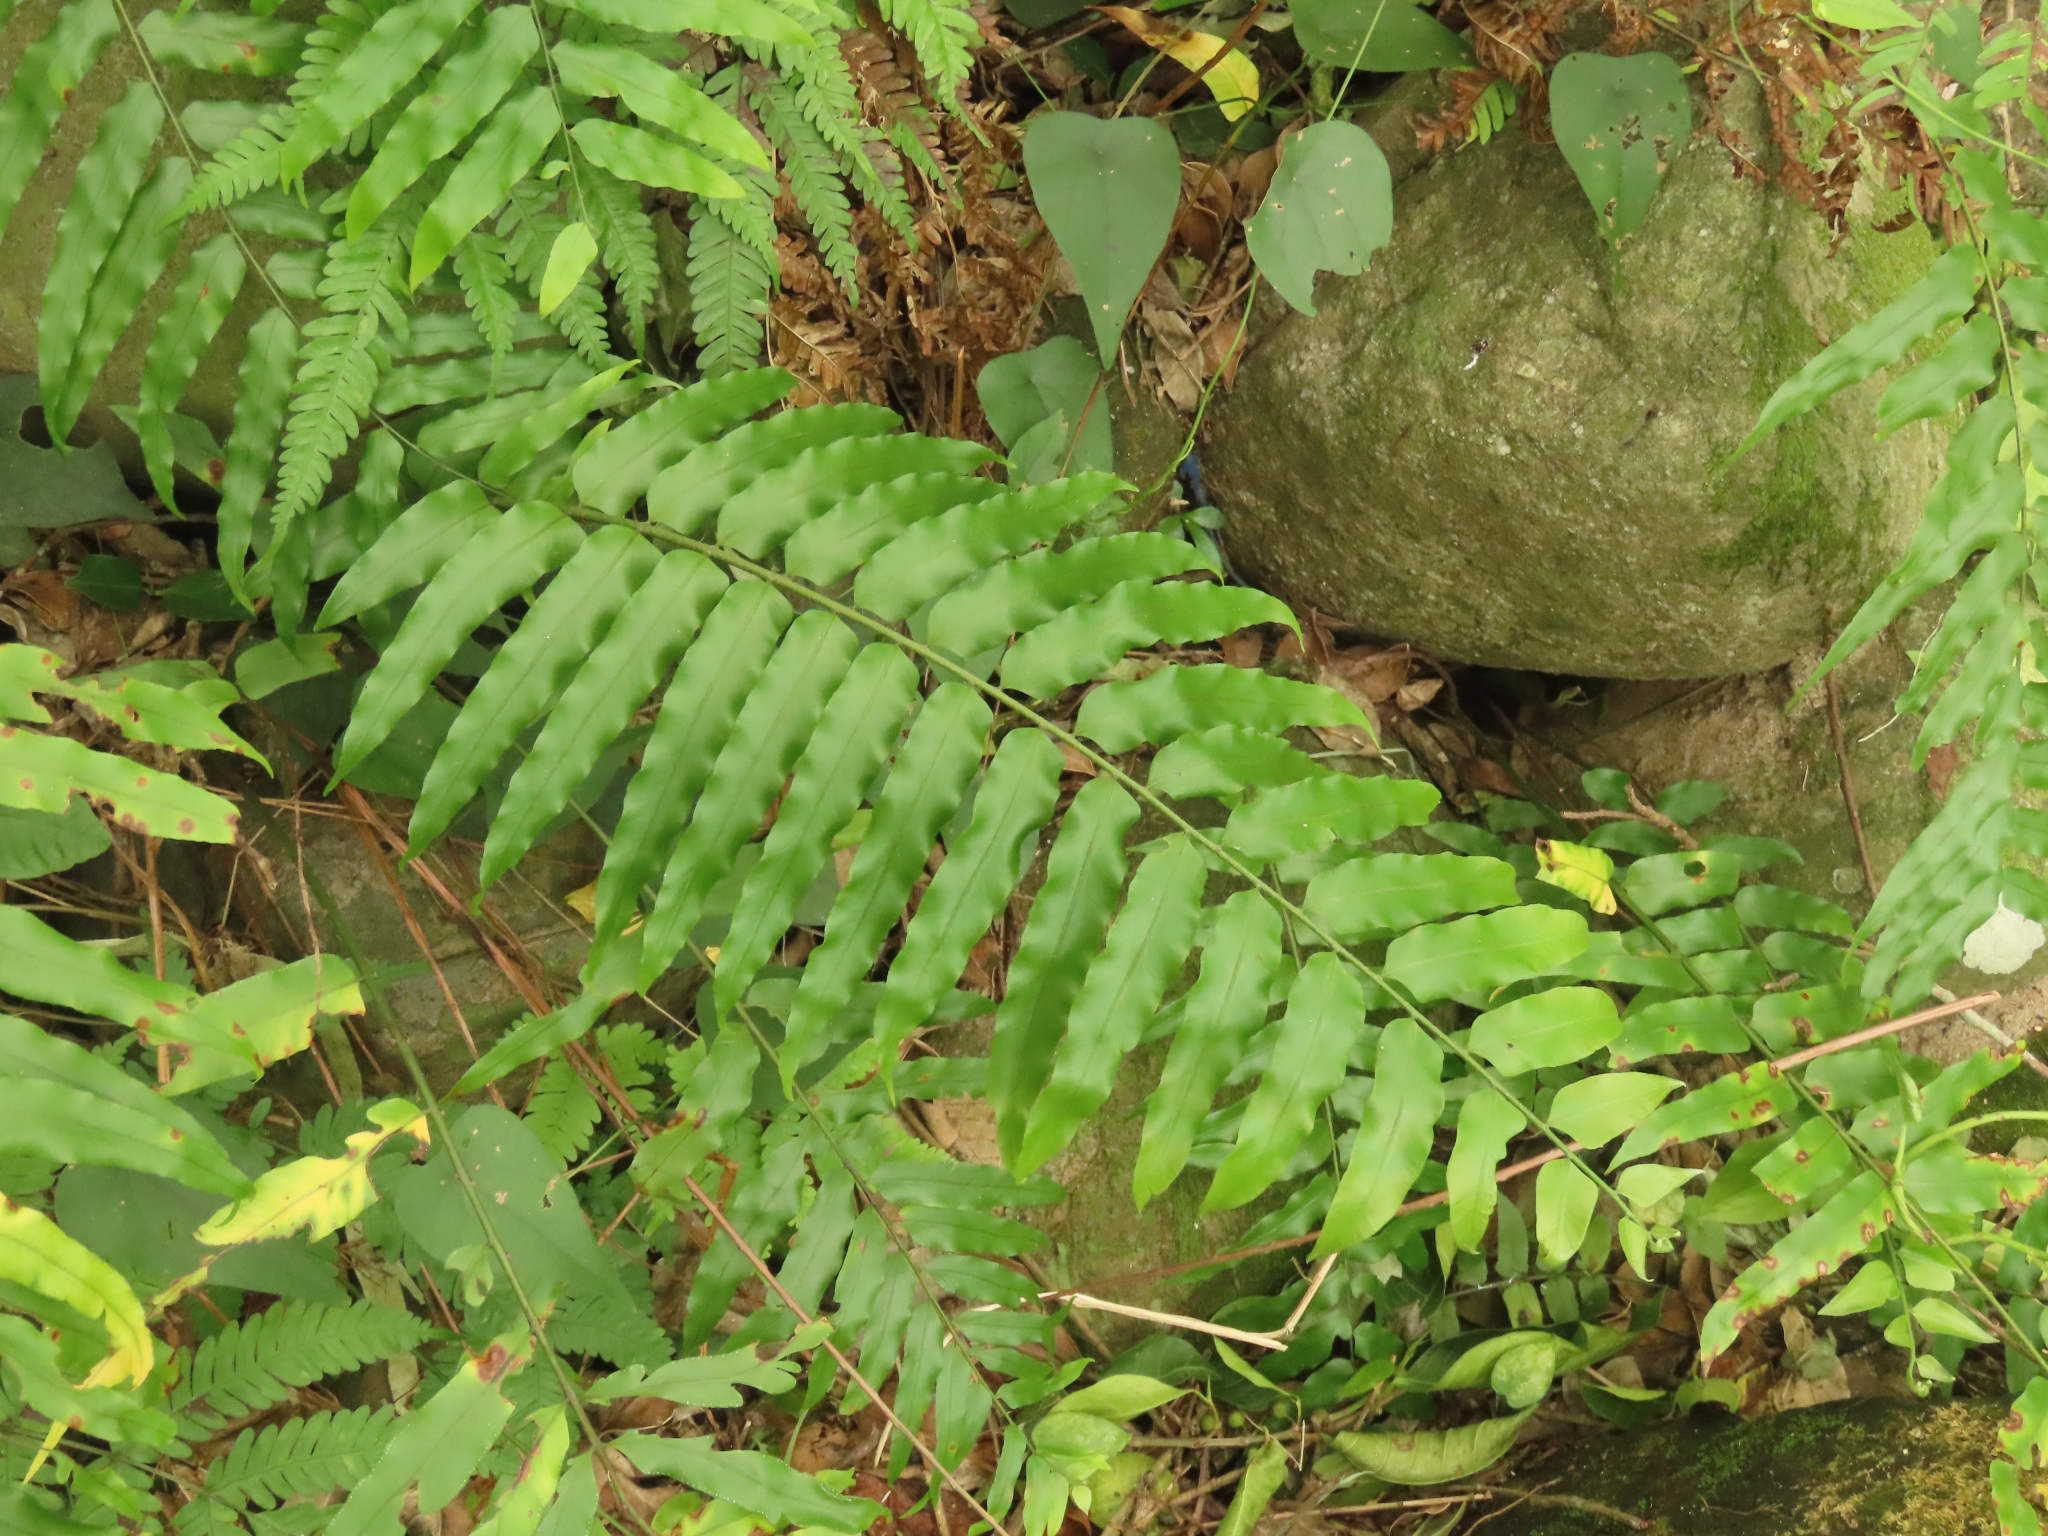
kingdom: Plantae
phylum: Tracheophyta
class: Polypodiopsida
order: Polypodiales
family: Nephrolepidaceae
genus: Nephrolepis
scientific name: Nephrolepis biserrata
